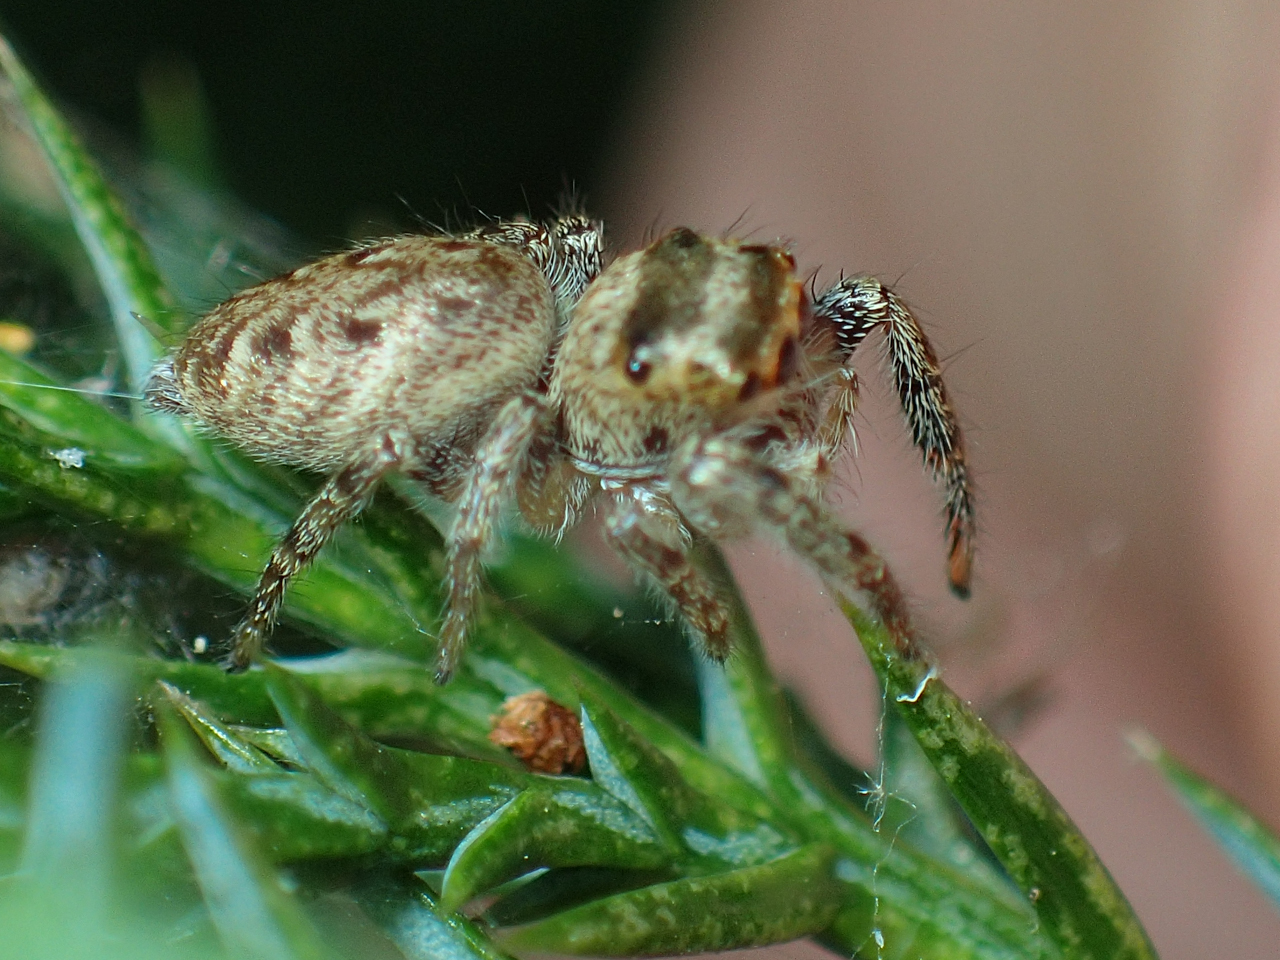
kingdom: Animalia
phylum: Arthropoda
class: Arachnida
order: Araneae
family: Salticidae
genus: Eris
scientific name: Eris militaris
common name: Bronze jumper
